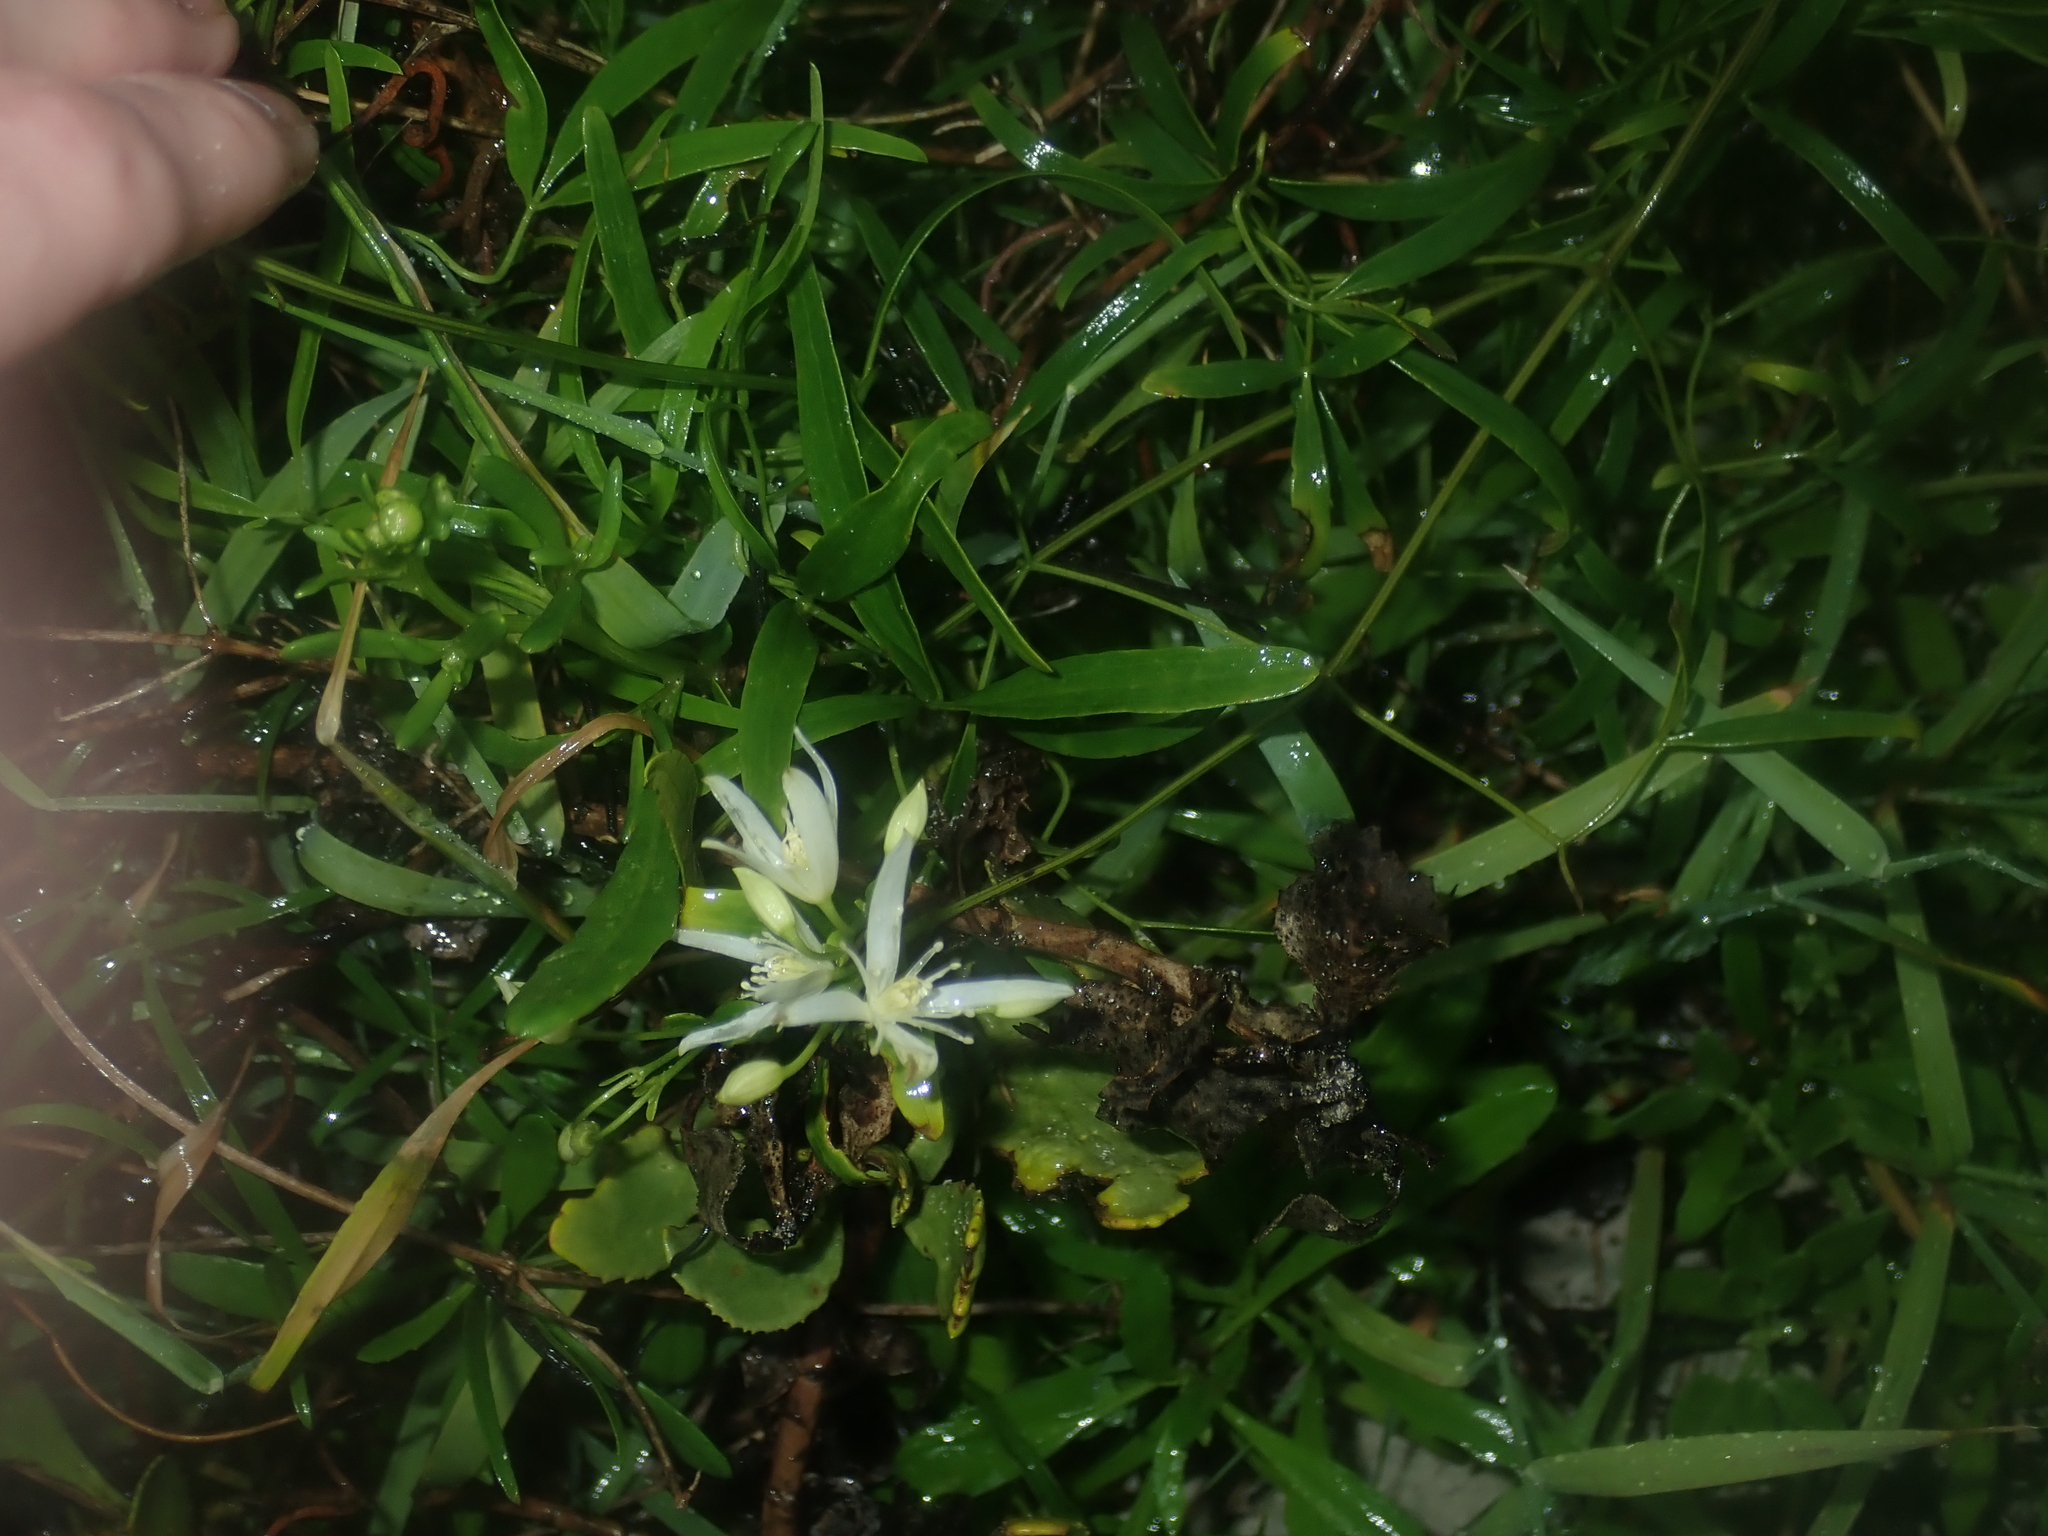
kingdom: Plantae
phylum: Tracheophyta
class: Magnoliopsida
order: Ranunculales
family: Ranunculaceae
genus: Clematis
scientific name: Clematis linearifolia
